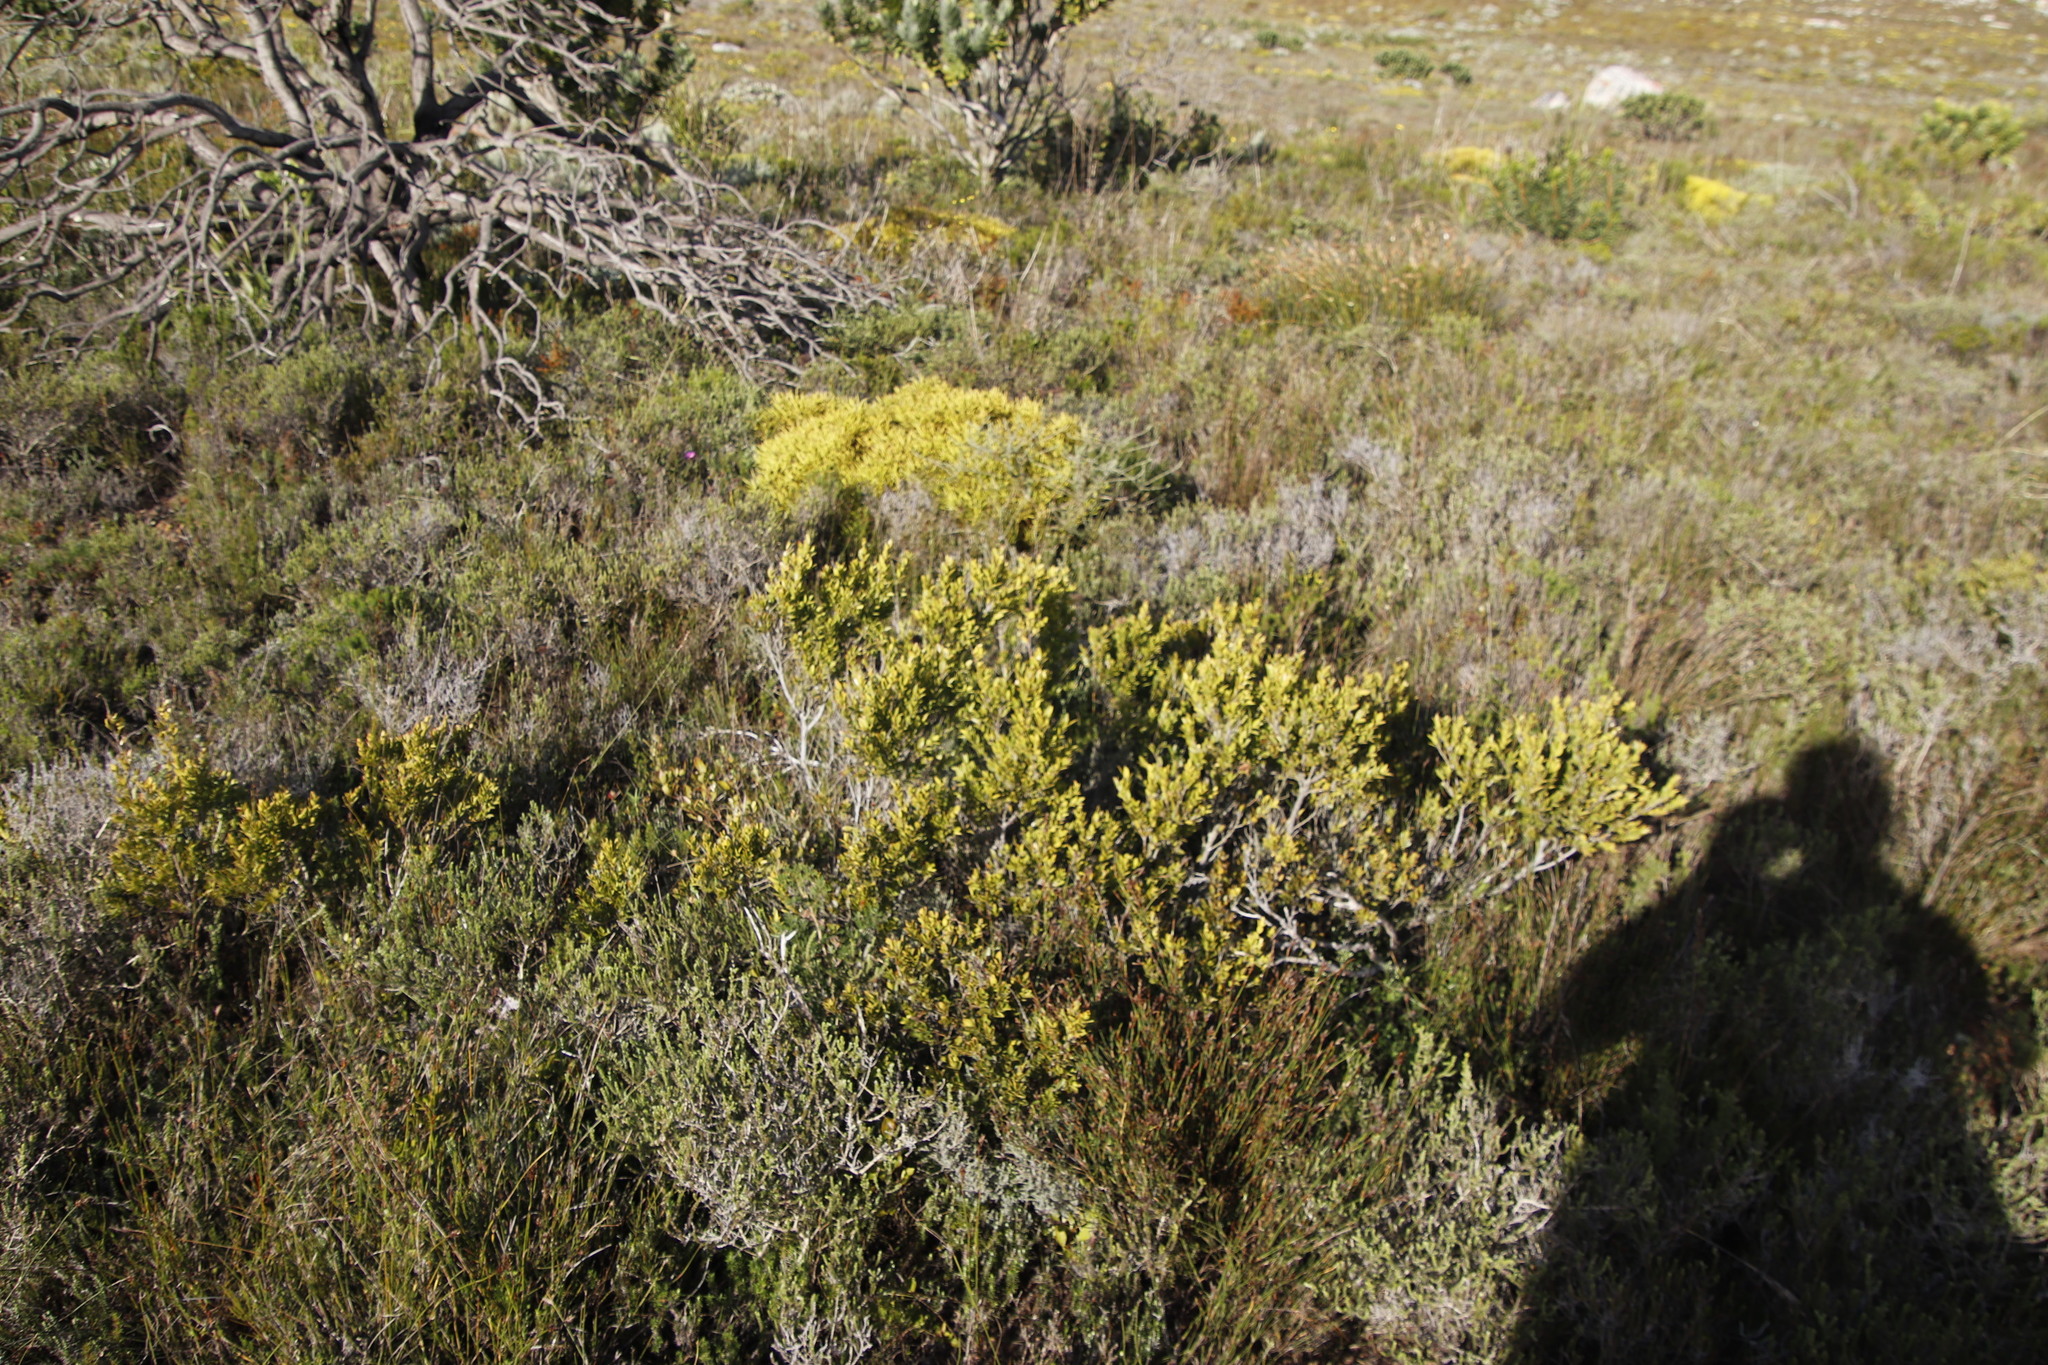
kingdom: Plantae
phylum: Tracheophyta
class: Magnoliopsida
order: Ericales
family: Ebenaceae
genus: Diospyros
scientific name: Diospyros glabra
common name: Fynbos star apple
